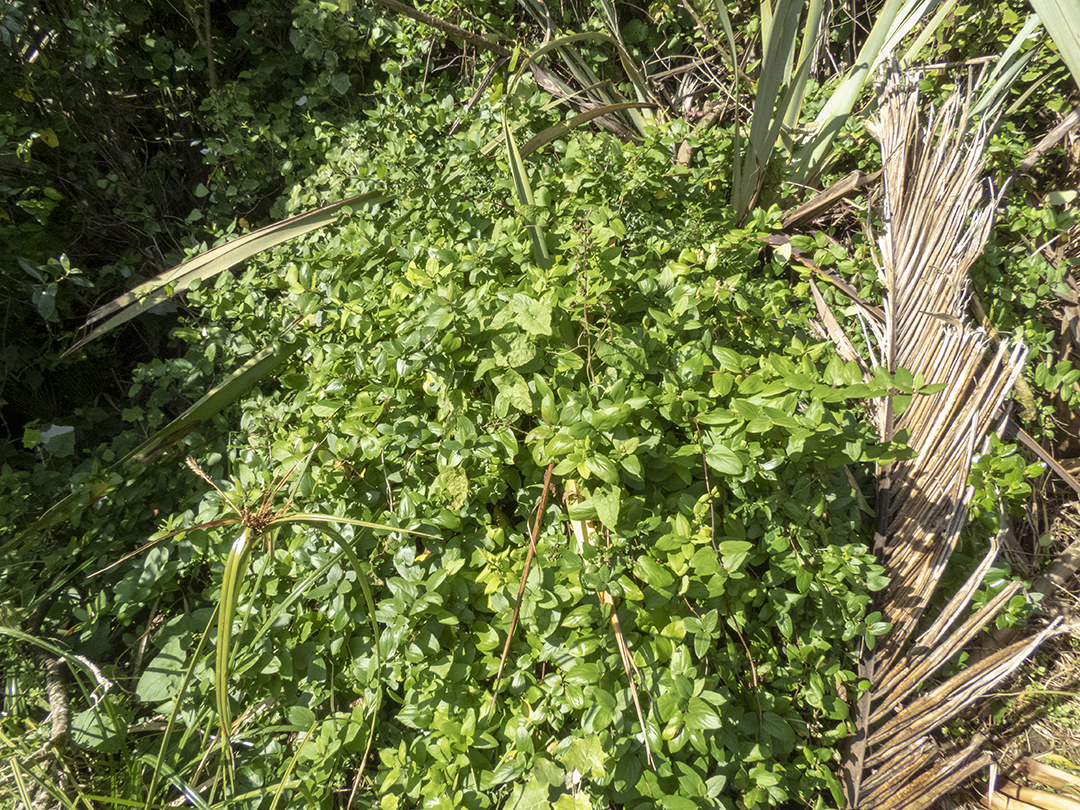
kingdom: Plantae
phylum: Tracheophyta
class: Magnoliopsida
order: Dipsacales
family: Caprifoliaceae
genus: Lonicera
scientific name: Lonicera japonica
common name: Japanese honeysuckle
